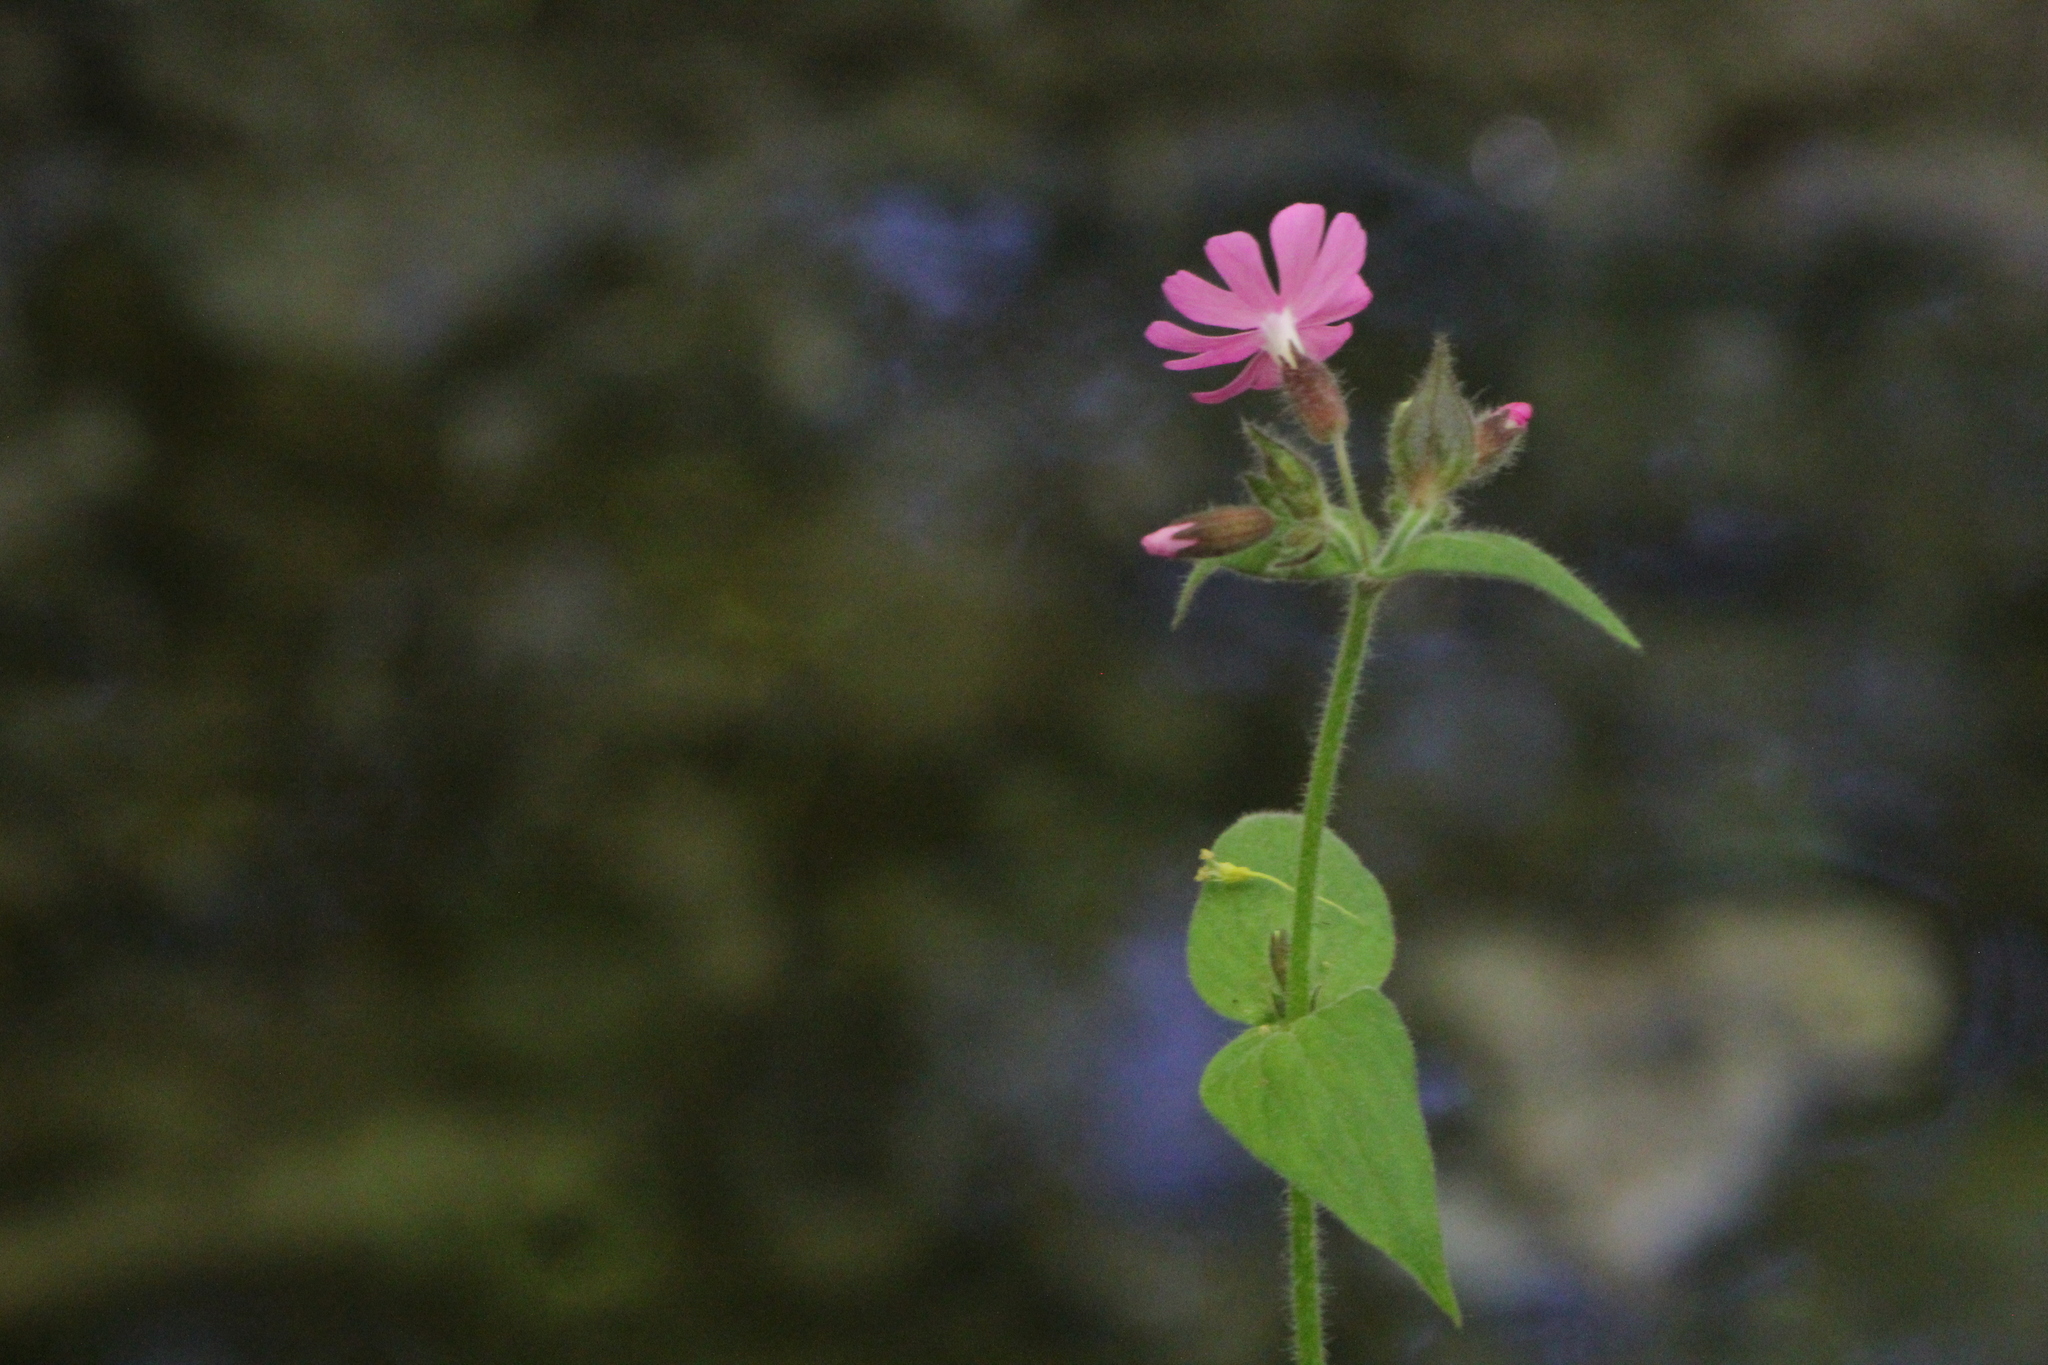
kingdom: Plantae
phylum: Tracheophyta
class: Magnoliopsida
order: Caryophyllales
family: Caryophyllaceae
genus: Silene
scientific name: Silene dioica
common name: Red campion
